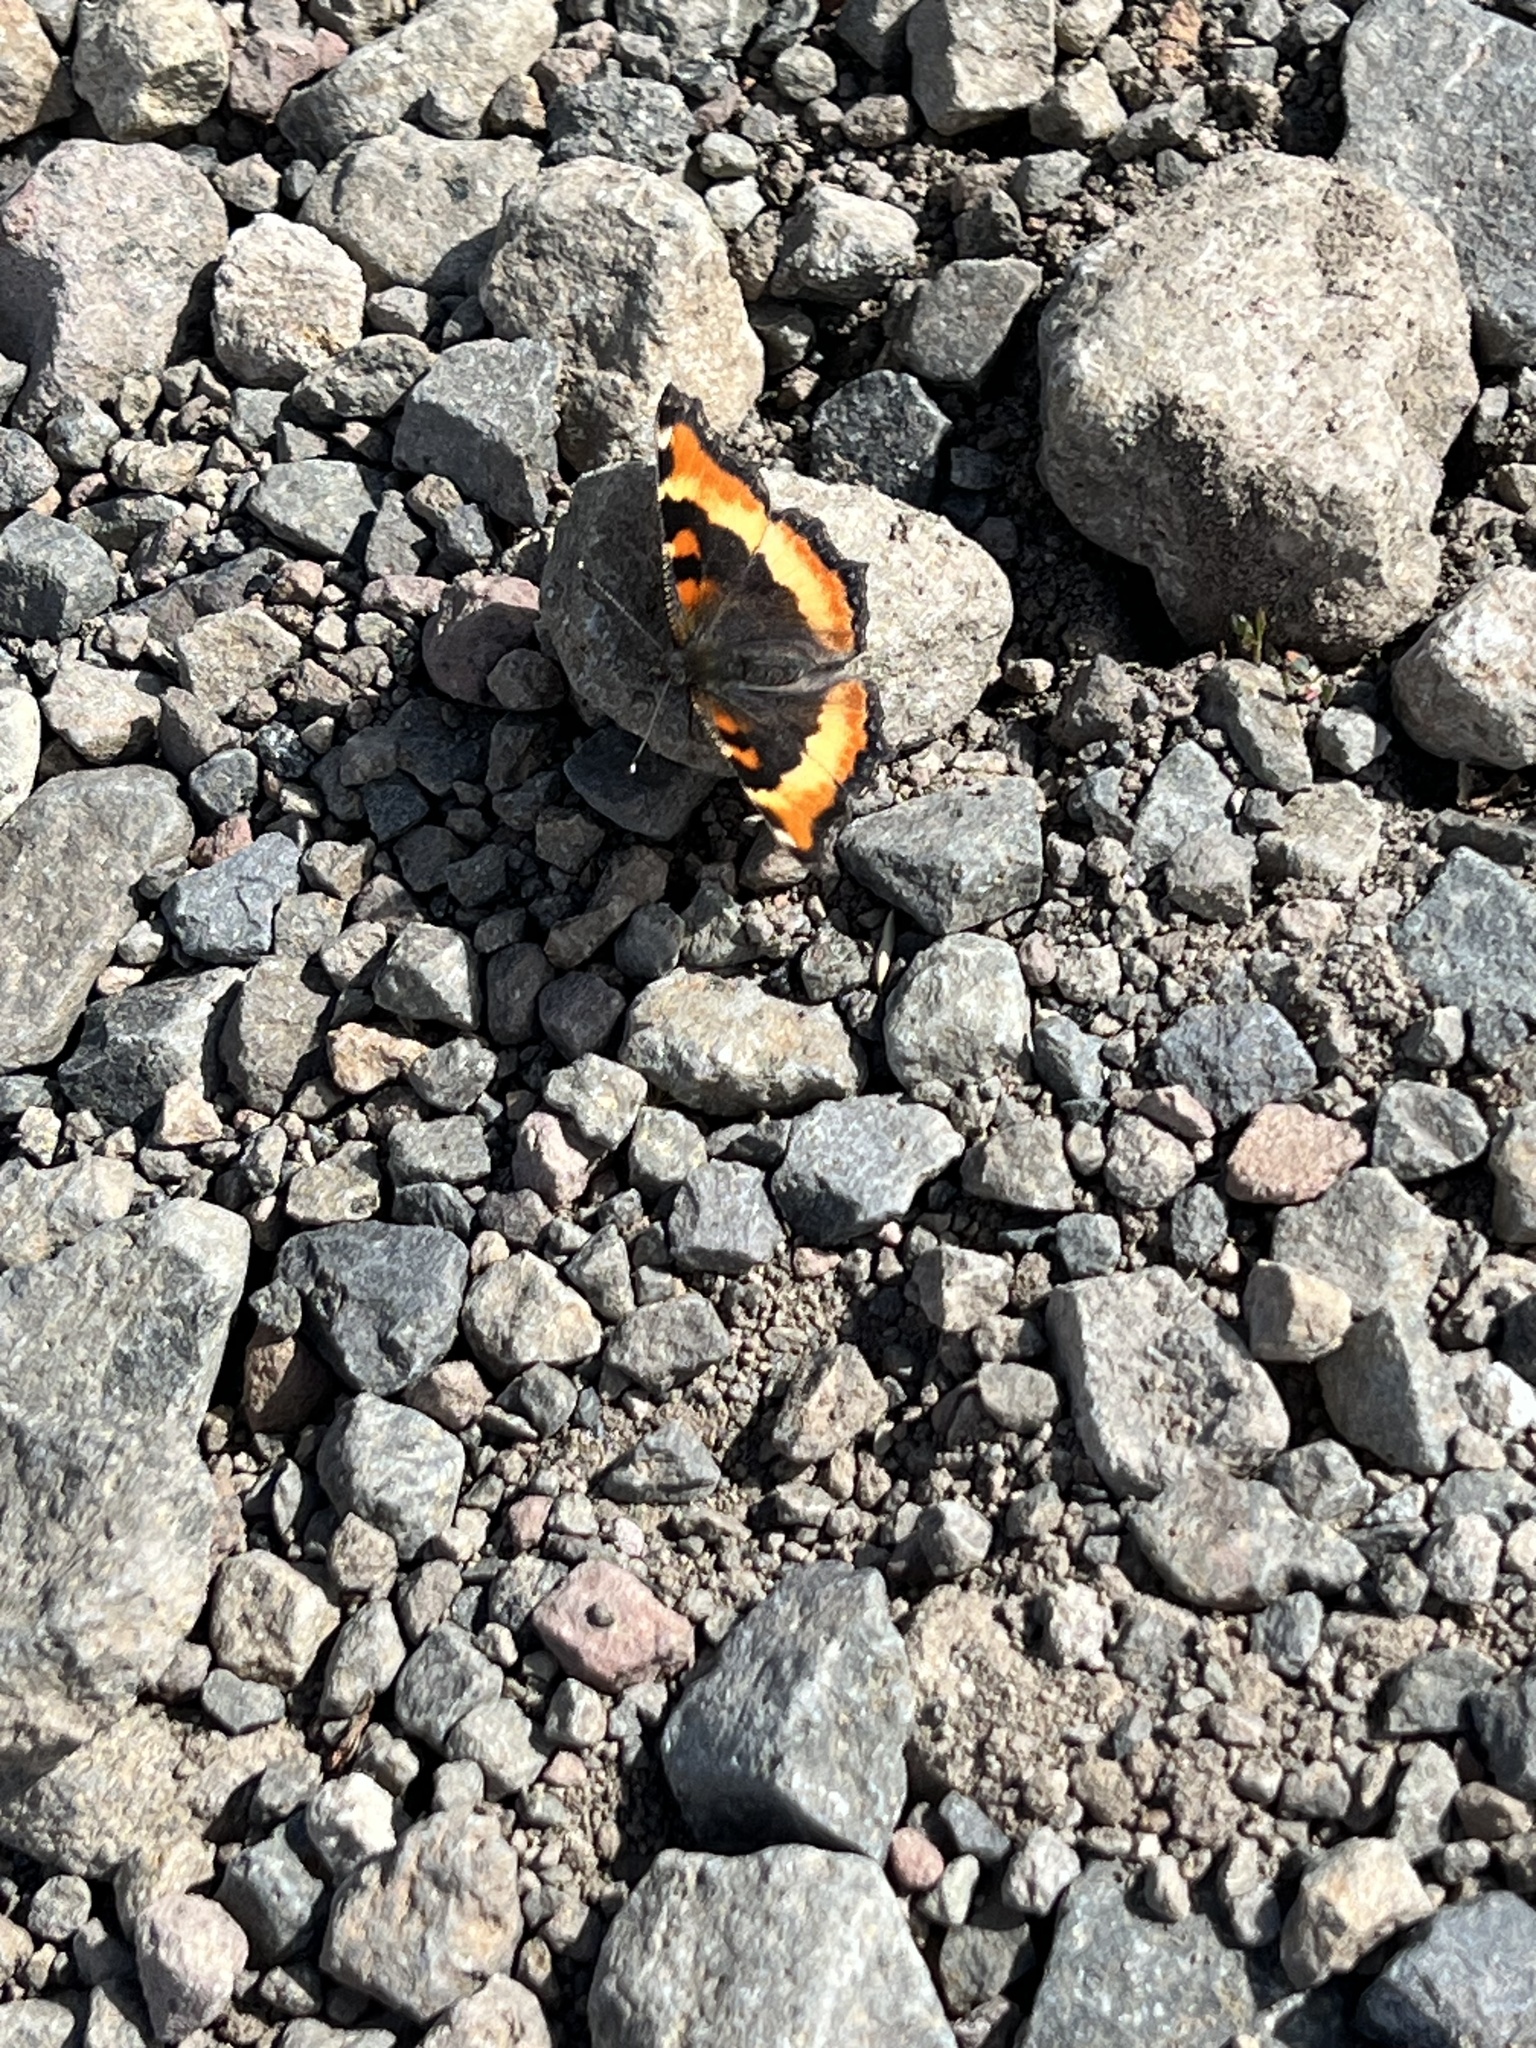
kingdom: Animalia
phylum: Arthropoda
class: Insecta
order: Lepidoptera
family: Nymphalidae
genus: Aglais
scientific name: Aglais milberti
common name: Milbert's tortoiseshell
